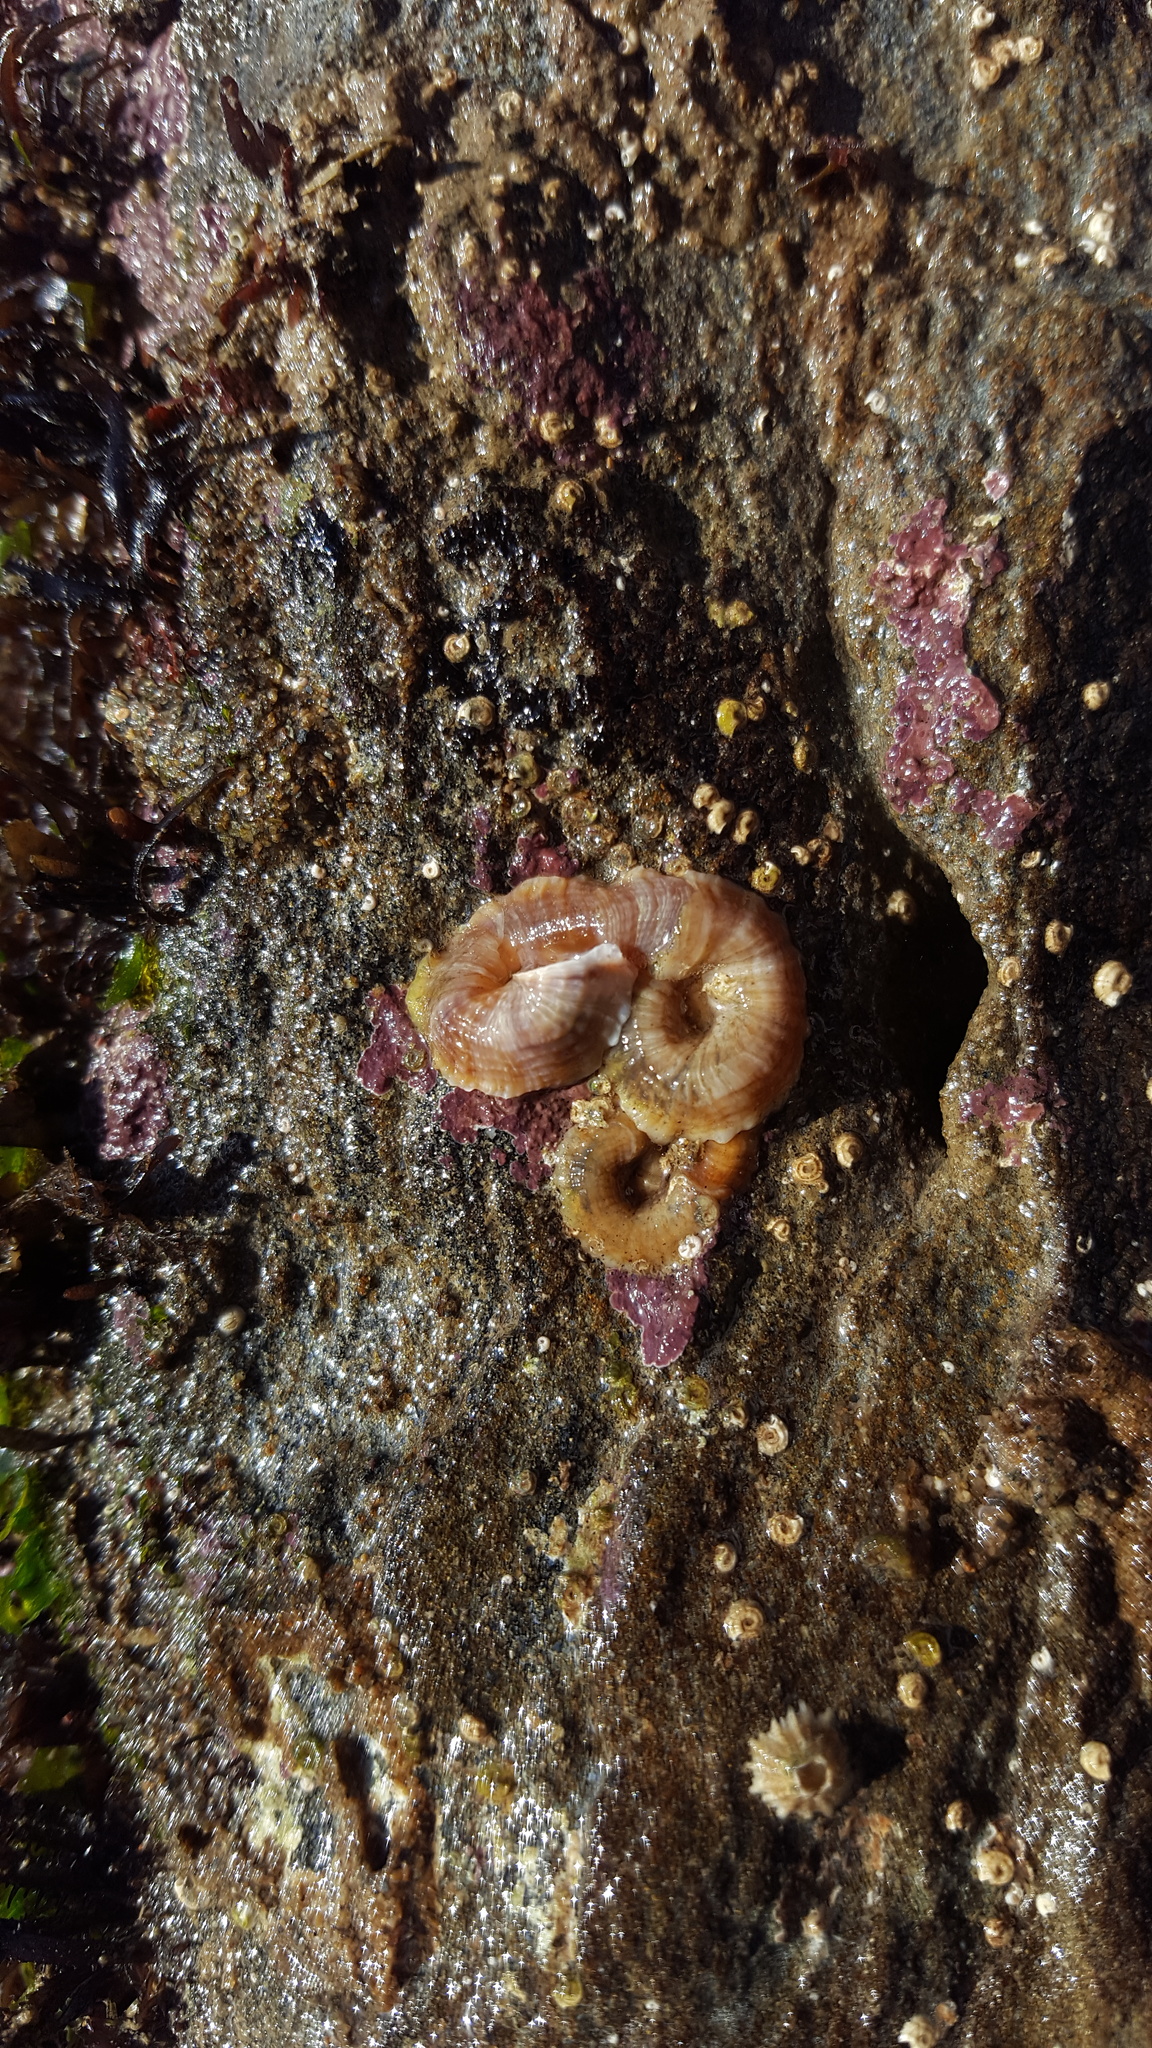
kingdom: Animalia
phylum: Mollusca
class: Gastropoda
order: Littorinimorpha
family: Vermetidae
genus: Thylacodes
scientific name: Thylacodes squamigerus
